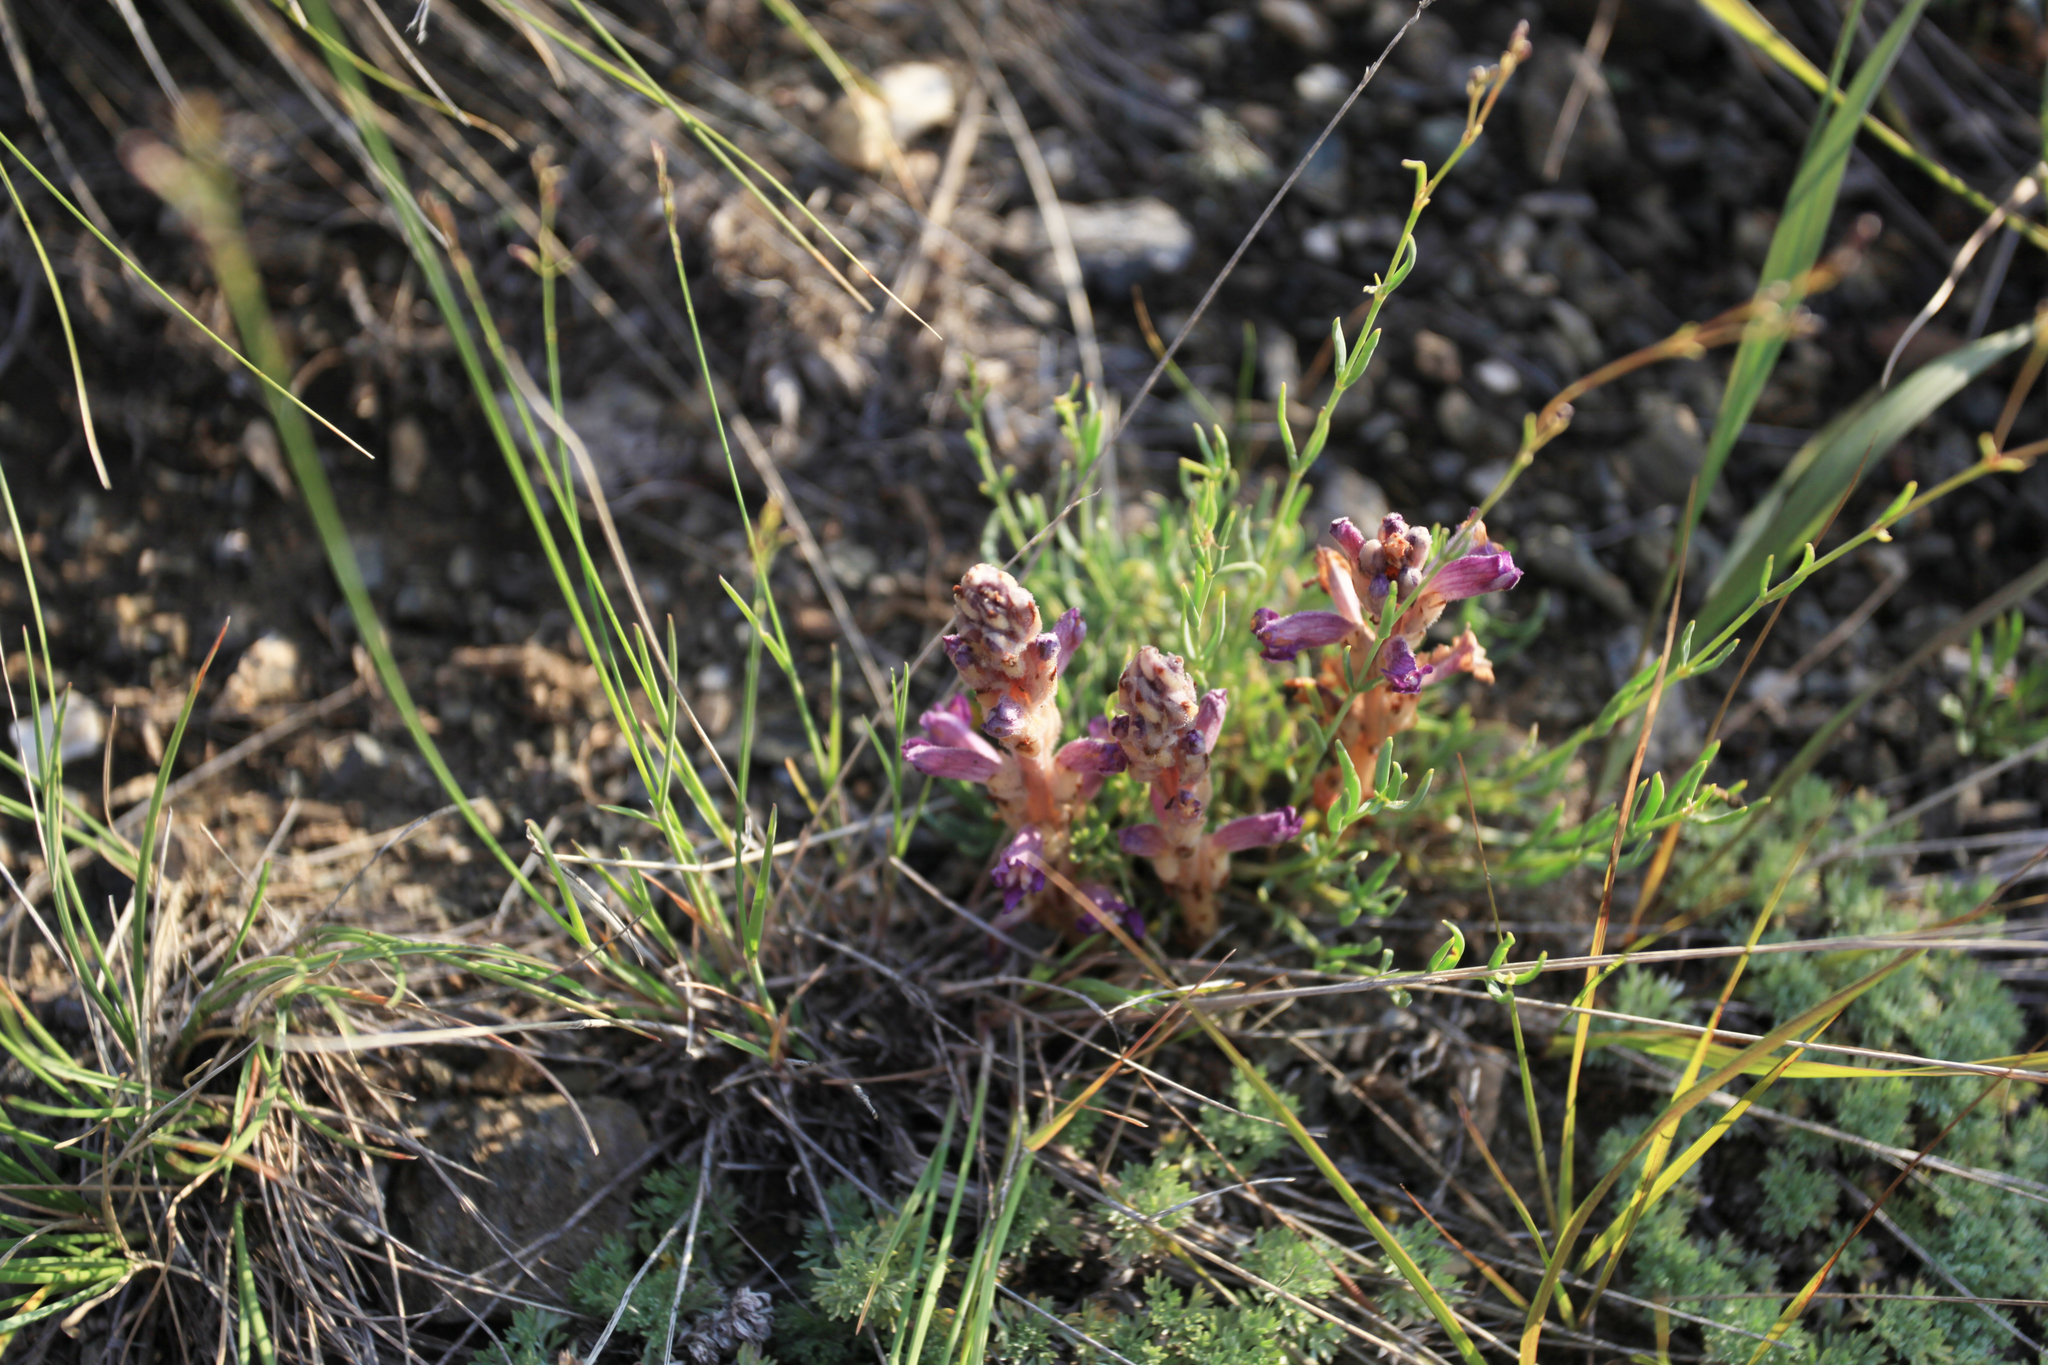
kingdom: Plantae
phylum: Tracheophyta
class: Magnoliopsida
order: Lamiales
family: Orobanchaceae
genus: Phelipanche
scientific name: Phelipanche caesia
